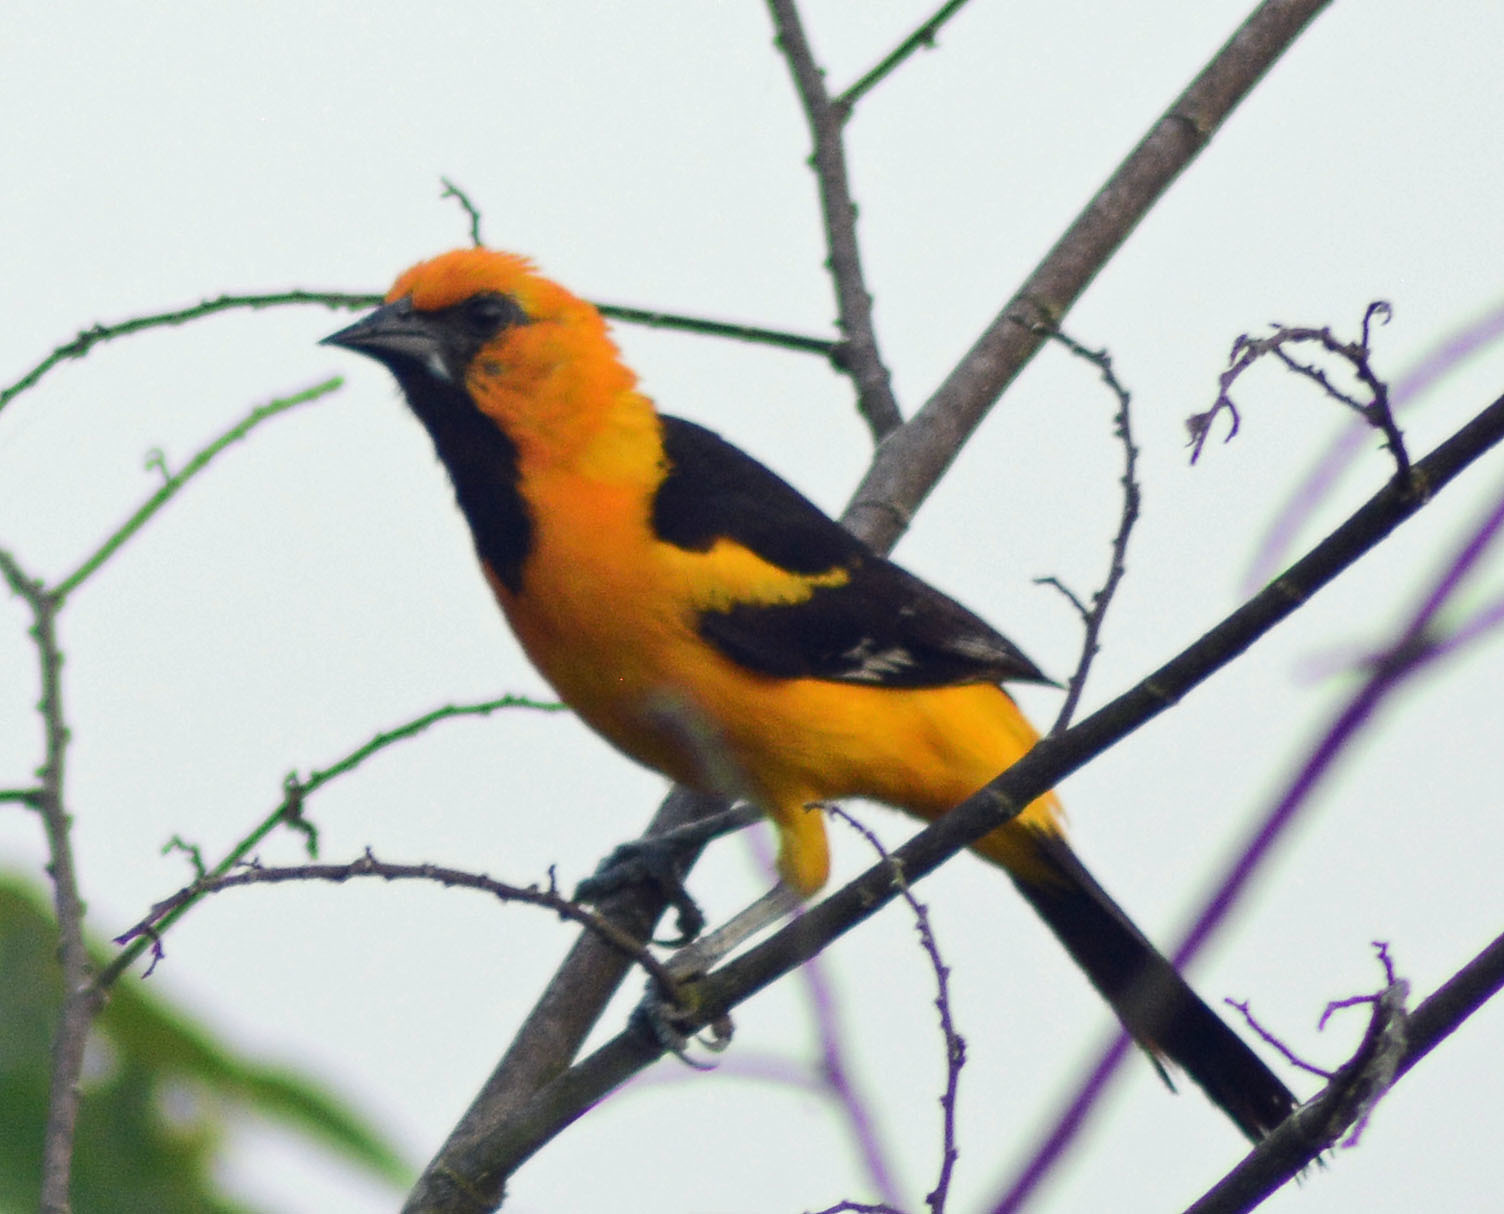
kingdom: Animalia
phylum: Chordata
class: Aves
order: Passeriformes
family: Icteridae
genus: Icterus
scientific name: Icterus gularis
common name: Altamira oriole
